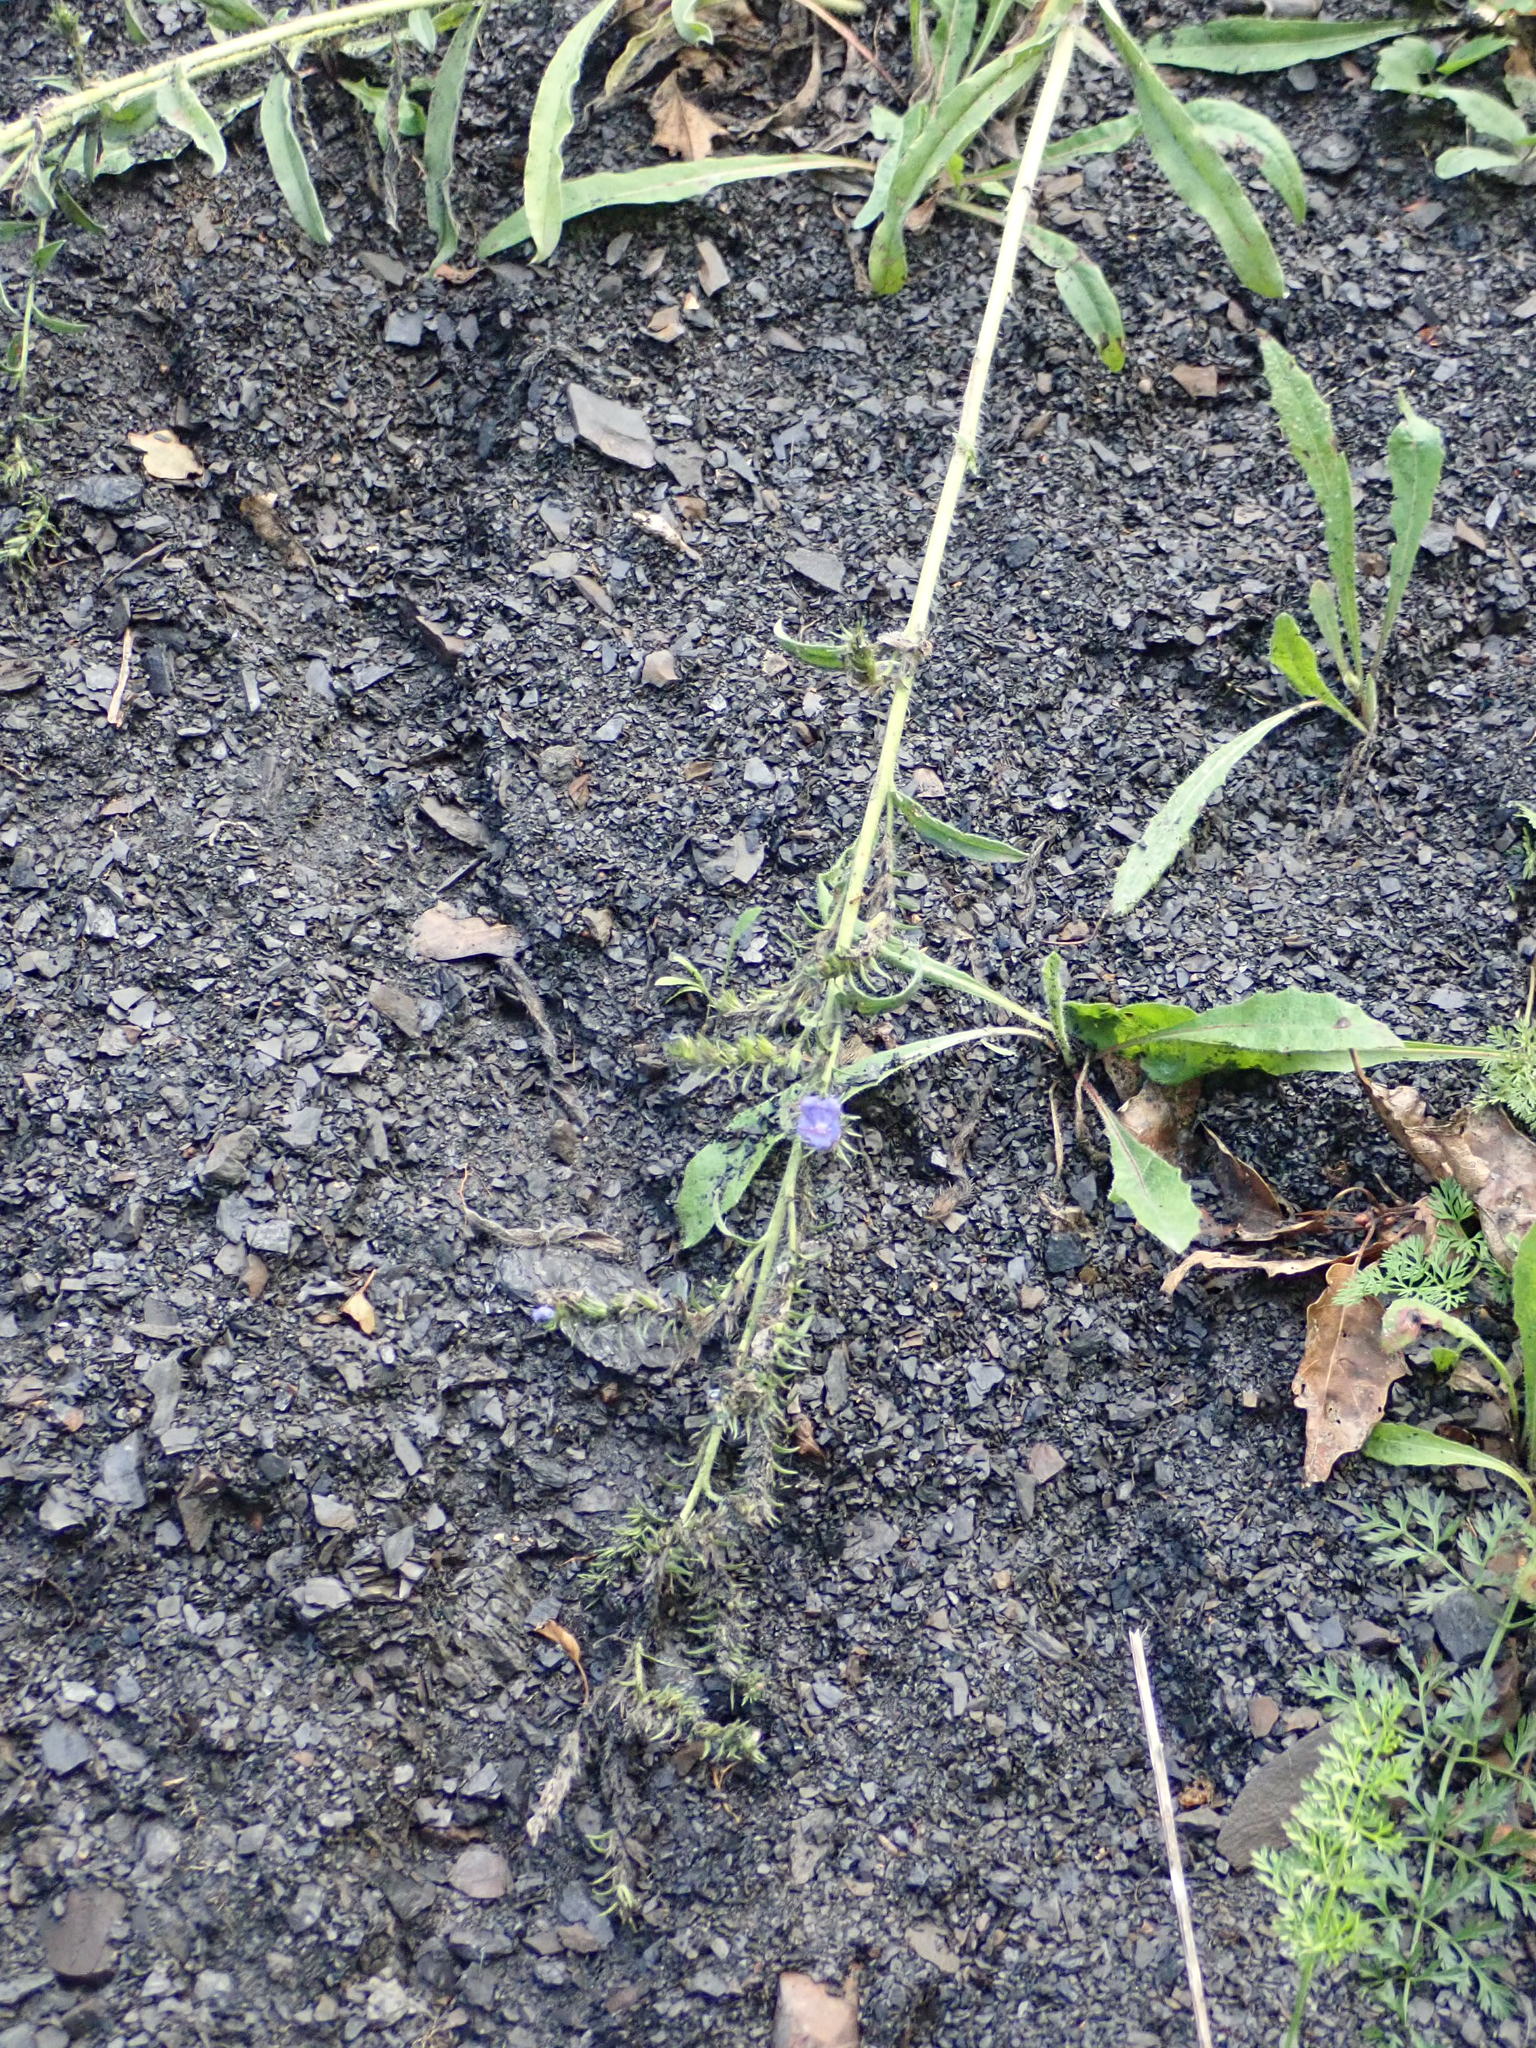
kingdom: Plantae
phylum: Tracheophyta
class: Magnoliopsida
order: Boraginales
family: Boraginaceae
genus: Echium
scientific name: Echium vulgare
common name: Common viper's bugloss
